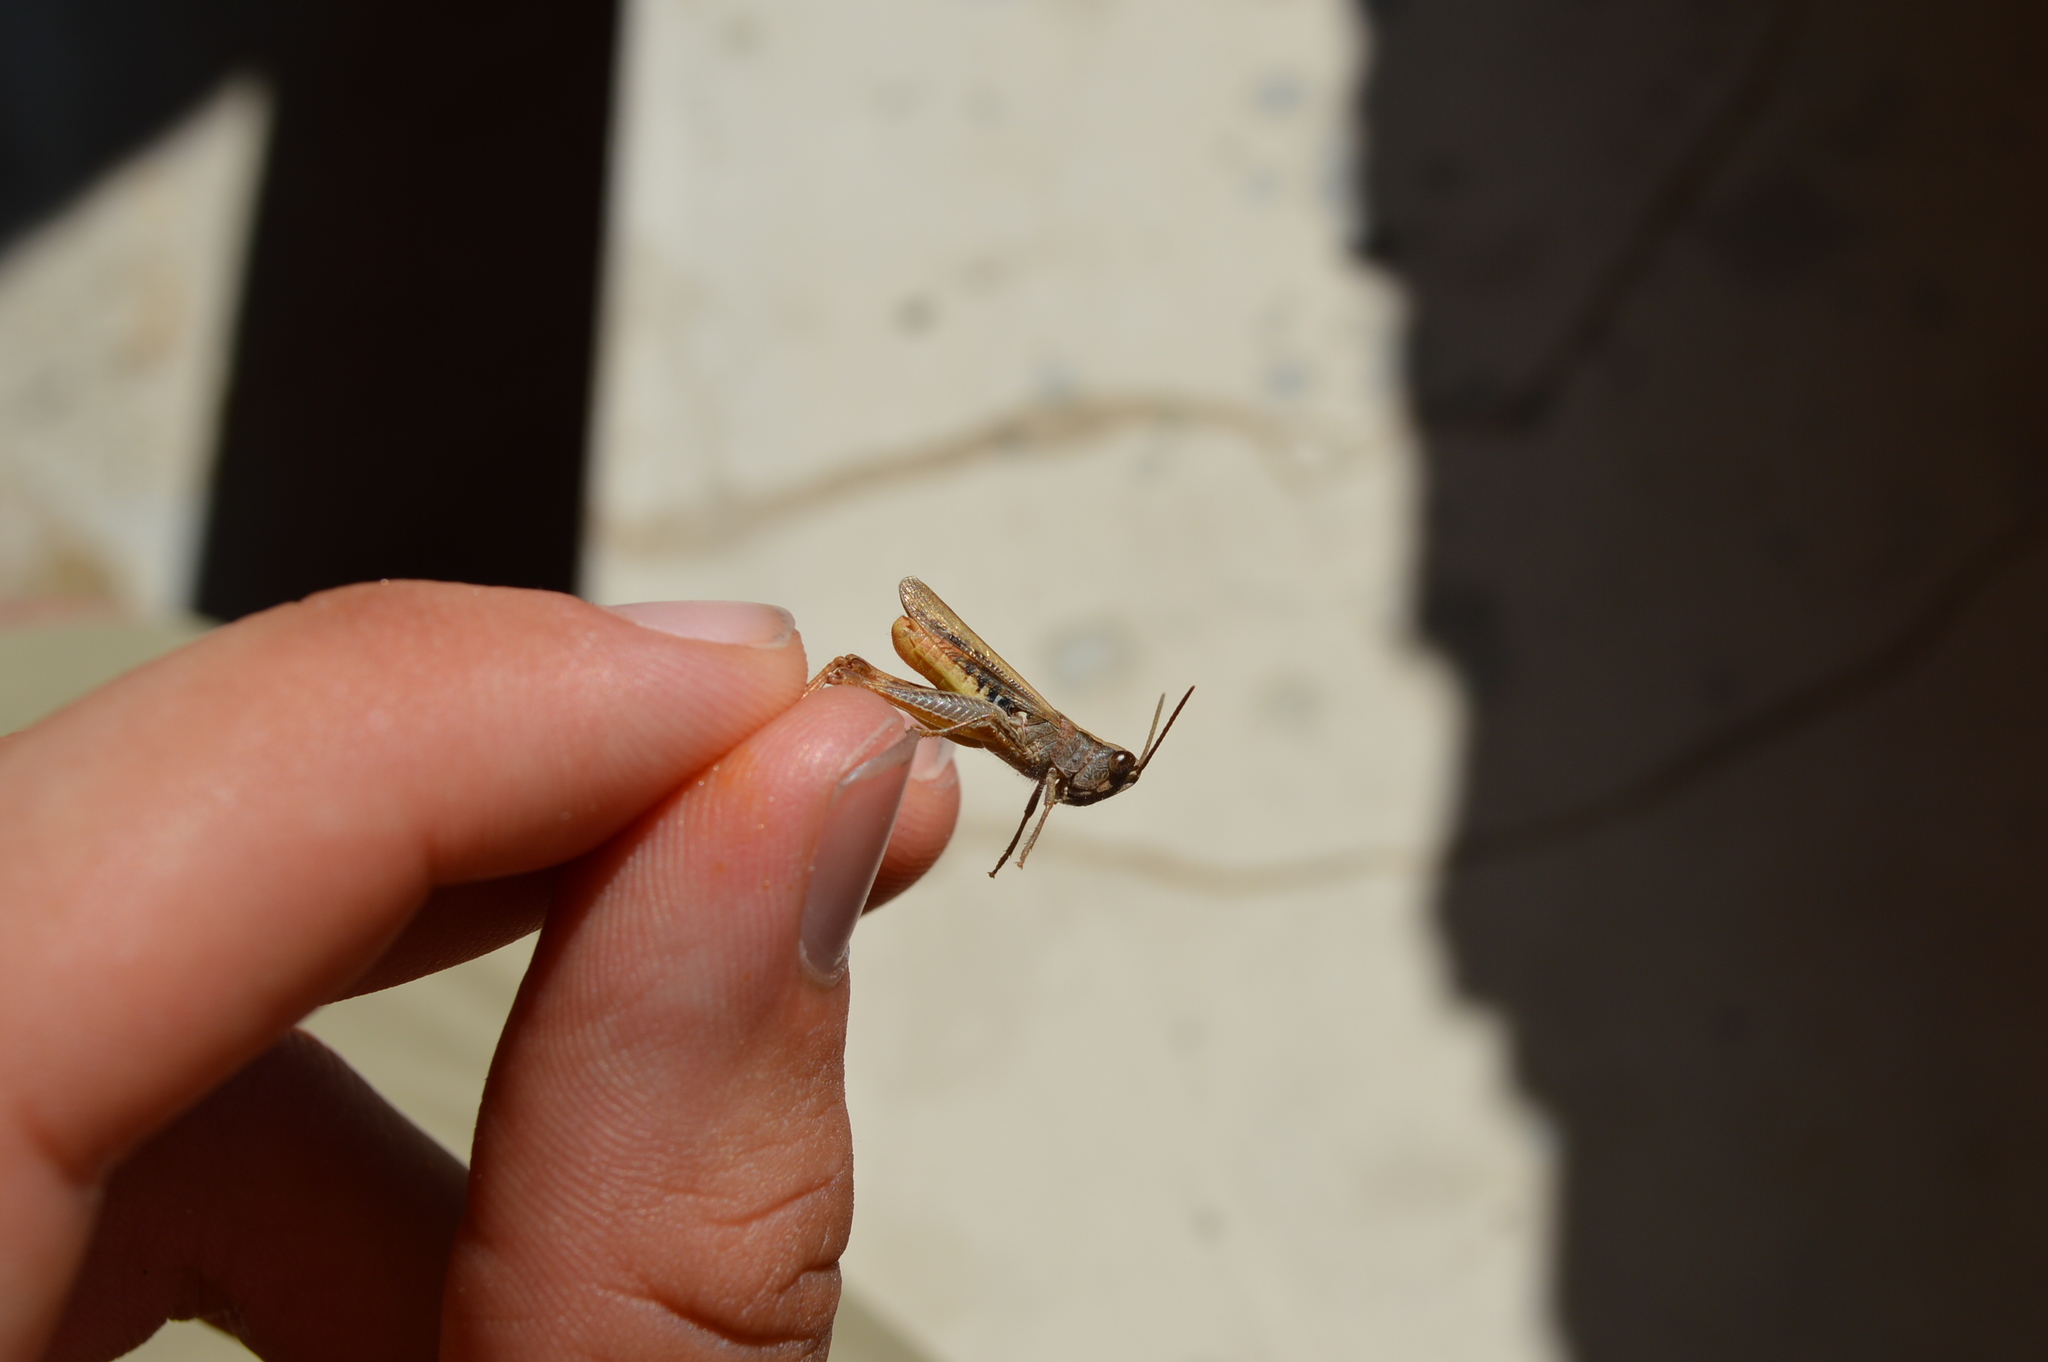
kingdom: Animalia
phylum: Arthropoda
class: Insecta
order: Orthoptera
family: Acrididae
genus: Chorthippus
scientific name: Chorthippus mollis
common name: Lesser field grasshopper
